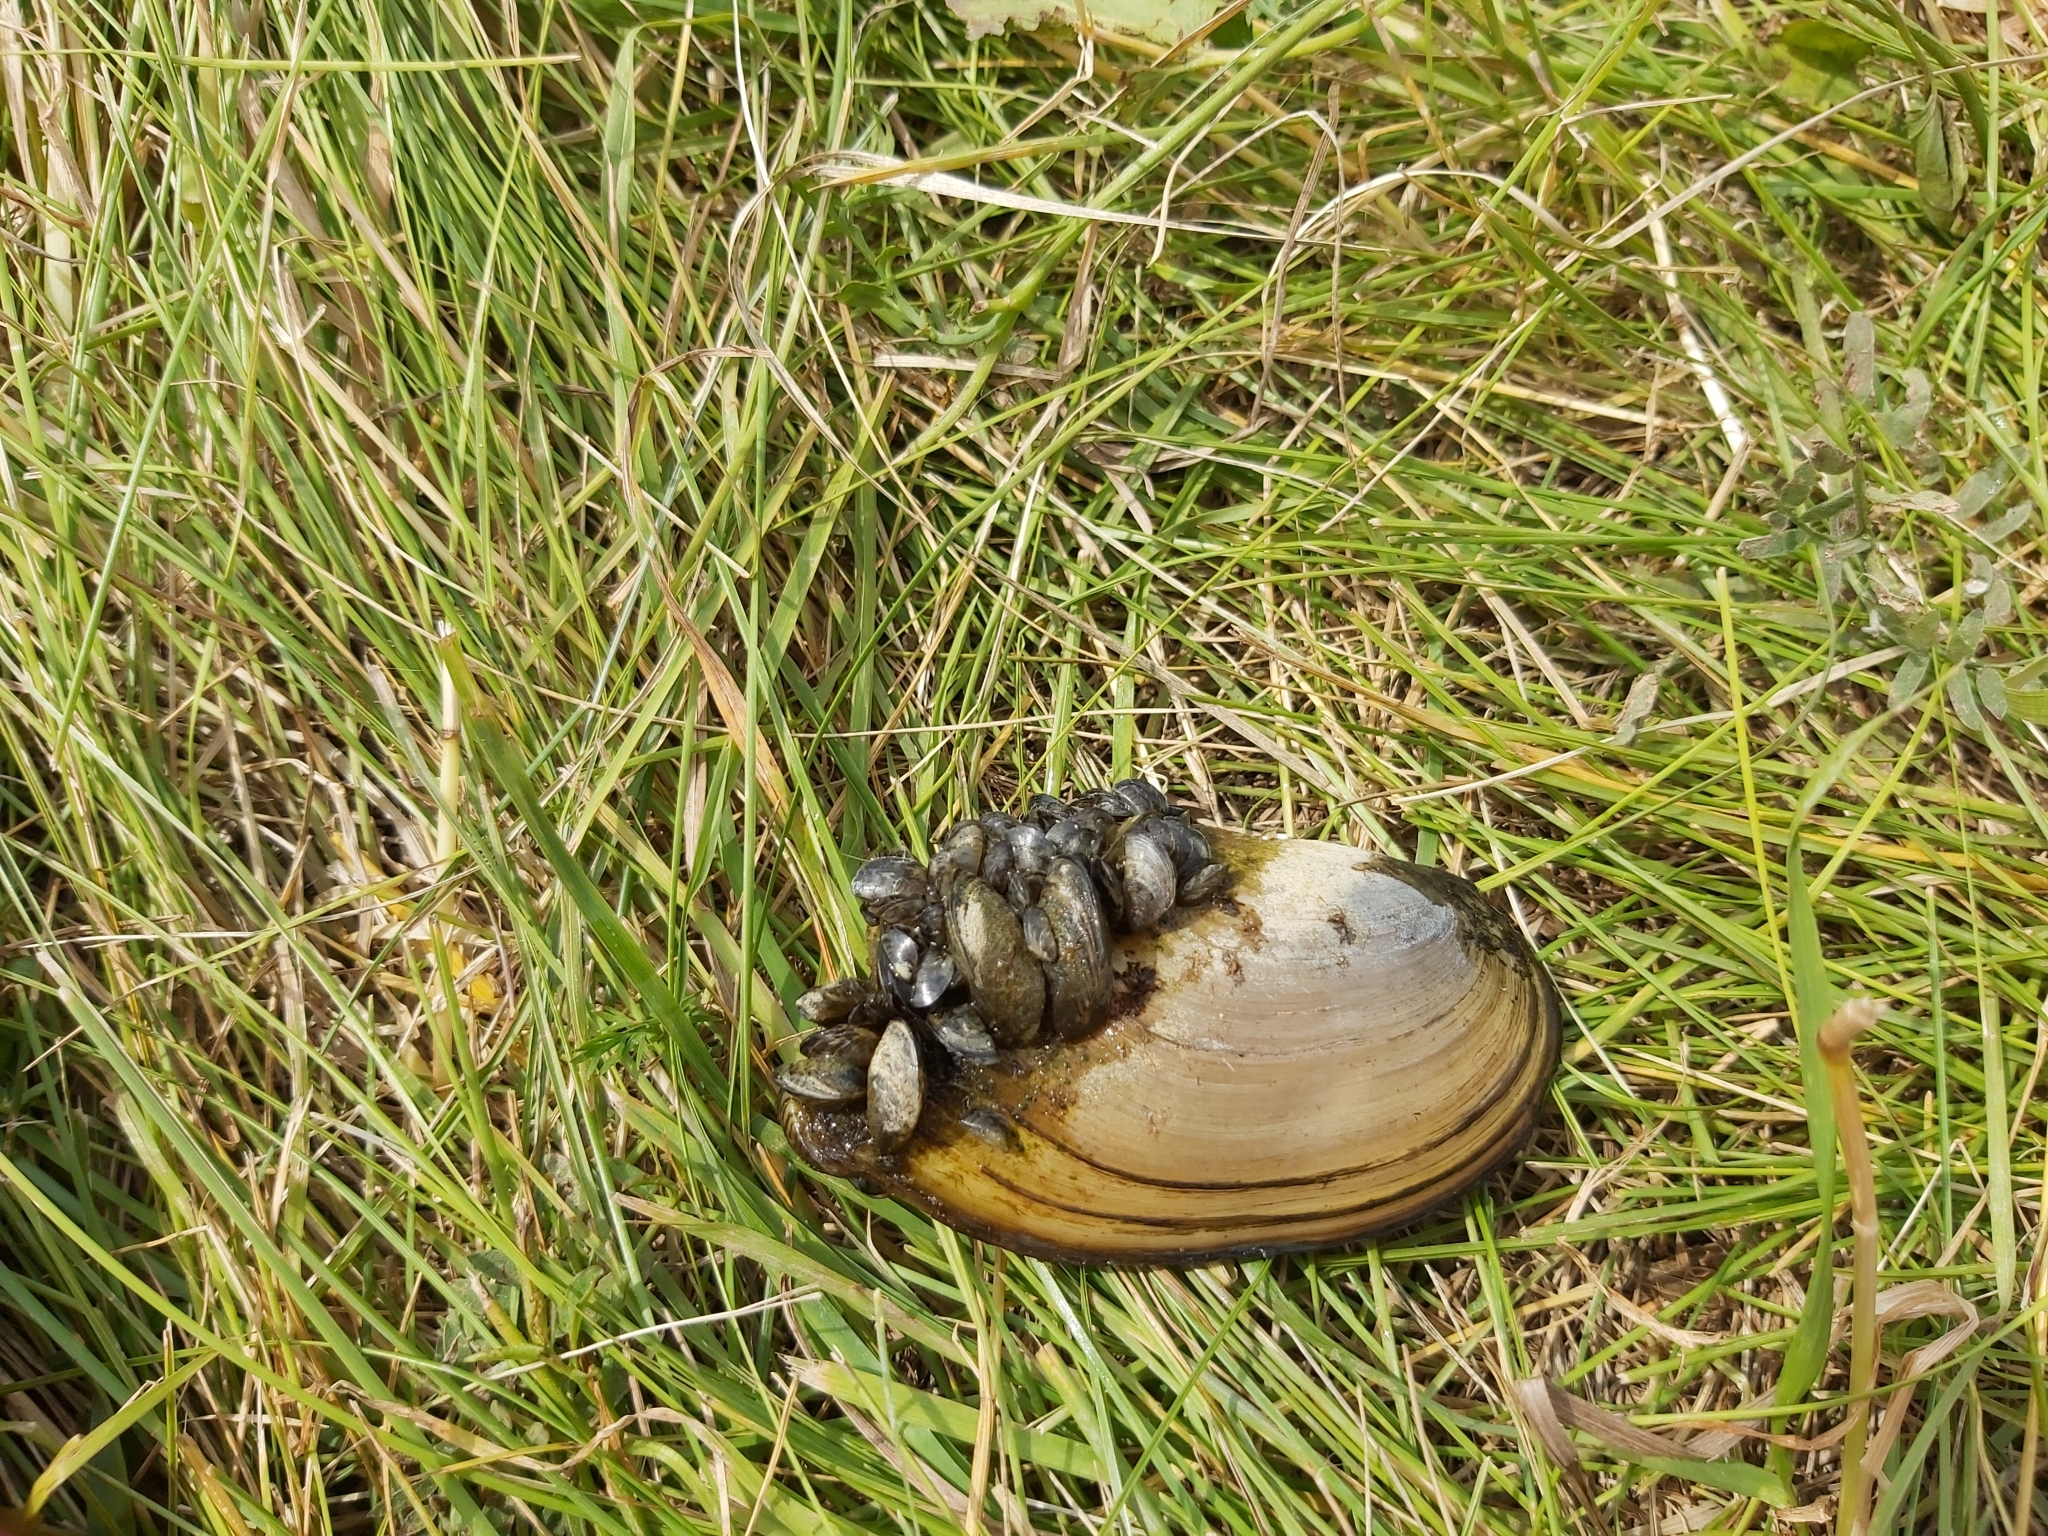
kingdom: Animalia
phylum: Mollusca
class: Bivalvia
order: Unionida
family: Unionidae
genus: Anodonta
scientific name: Anodonta anatina
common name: Duck mussel
